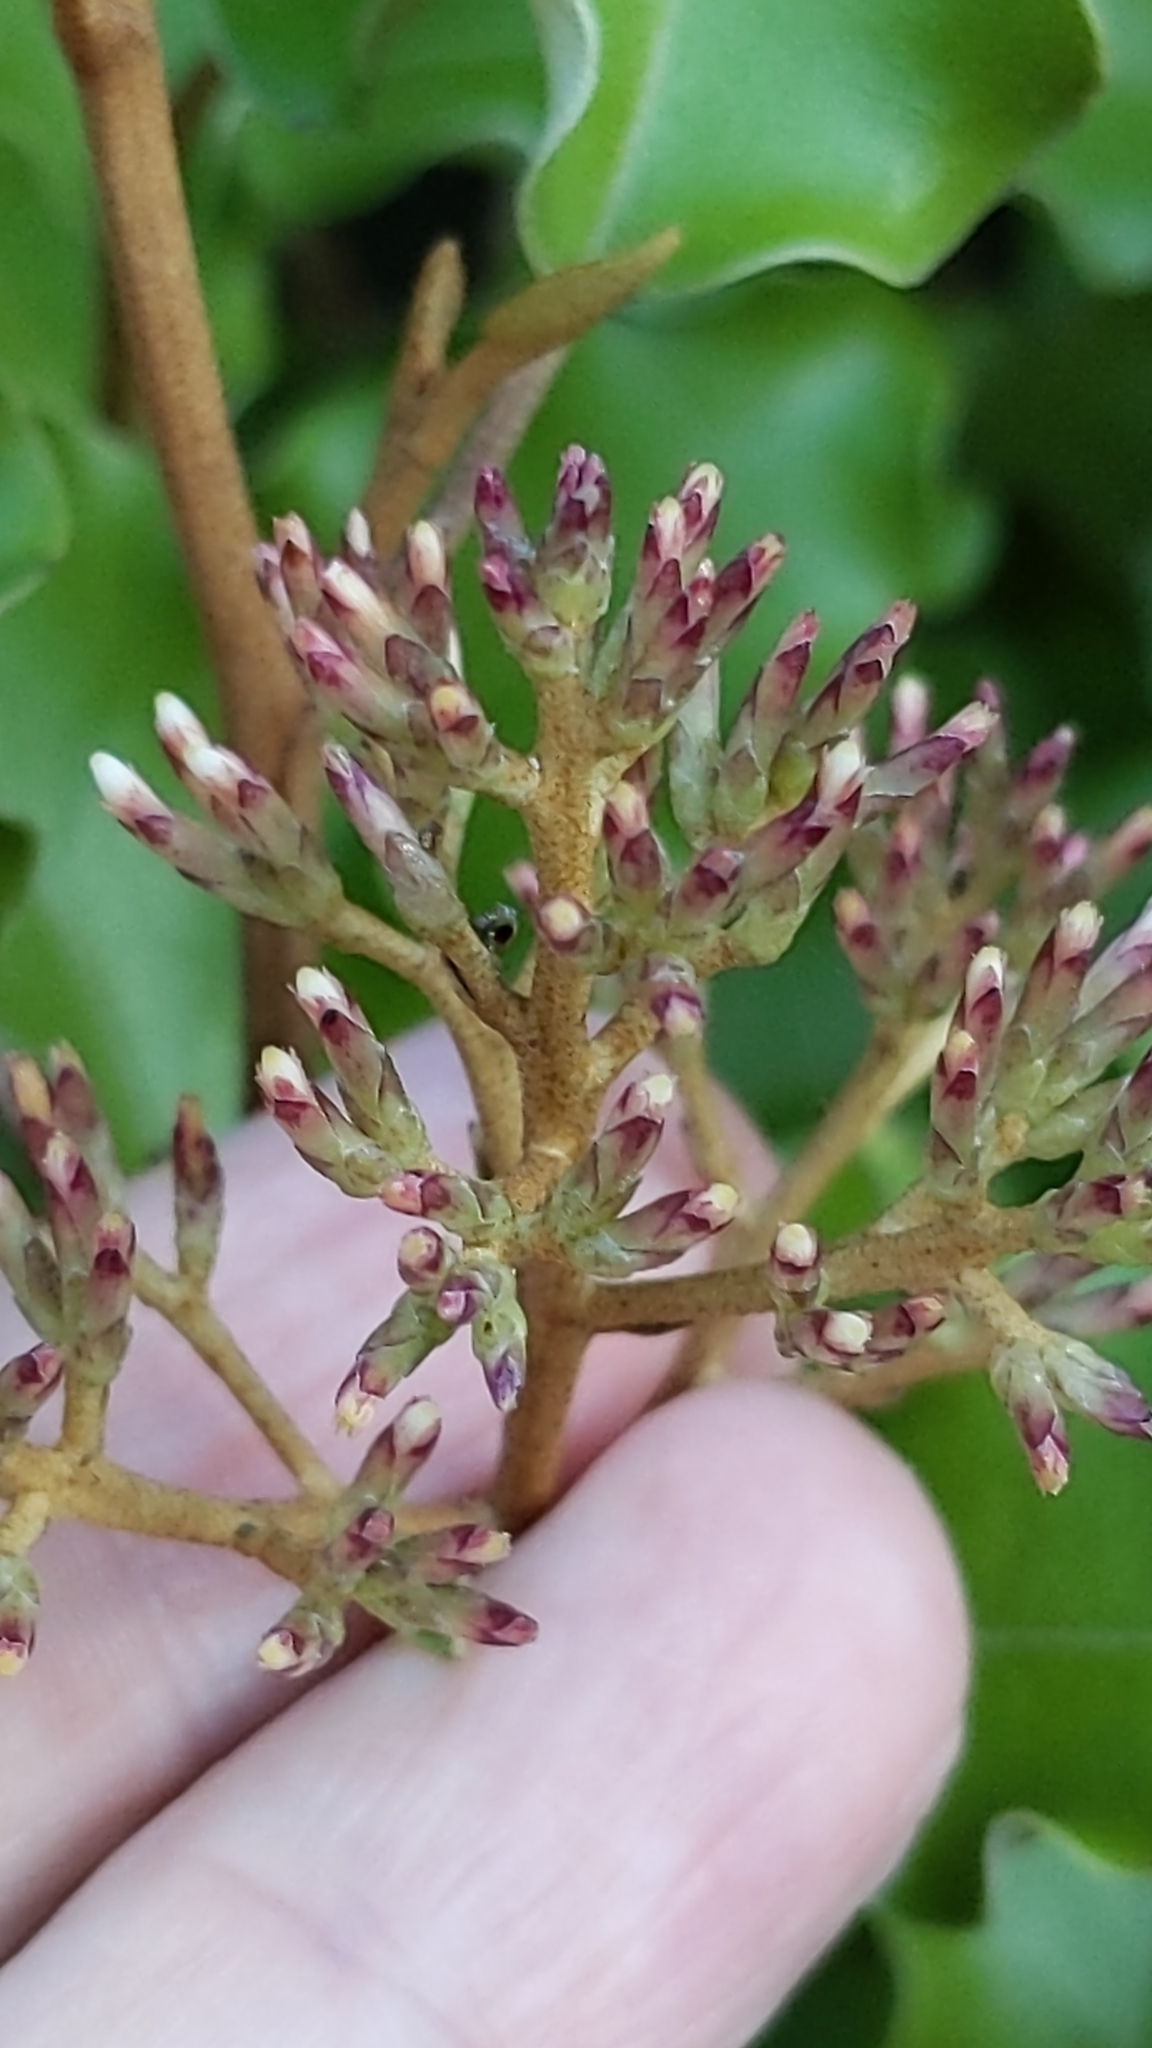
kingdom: Plantae
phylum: Tracheophyta
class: Magnoliopsida
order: Asterales
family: Asteraceae
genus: Olearia
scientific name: Olearia paniculata
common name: Akiraho
